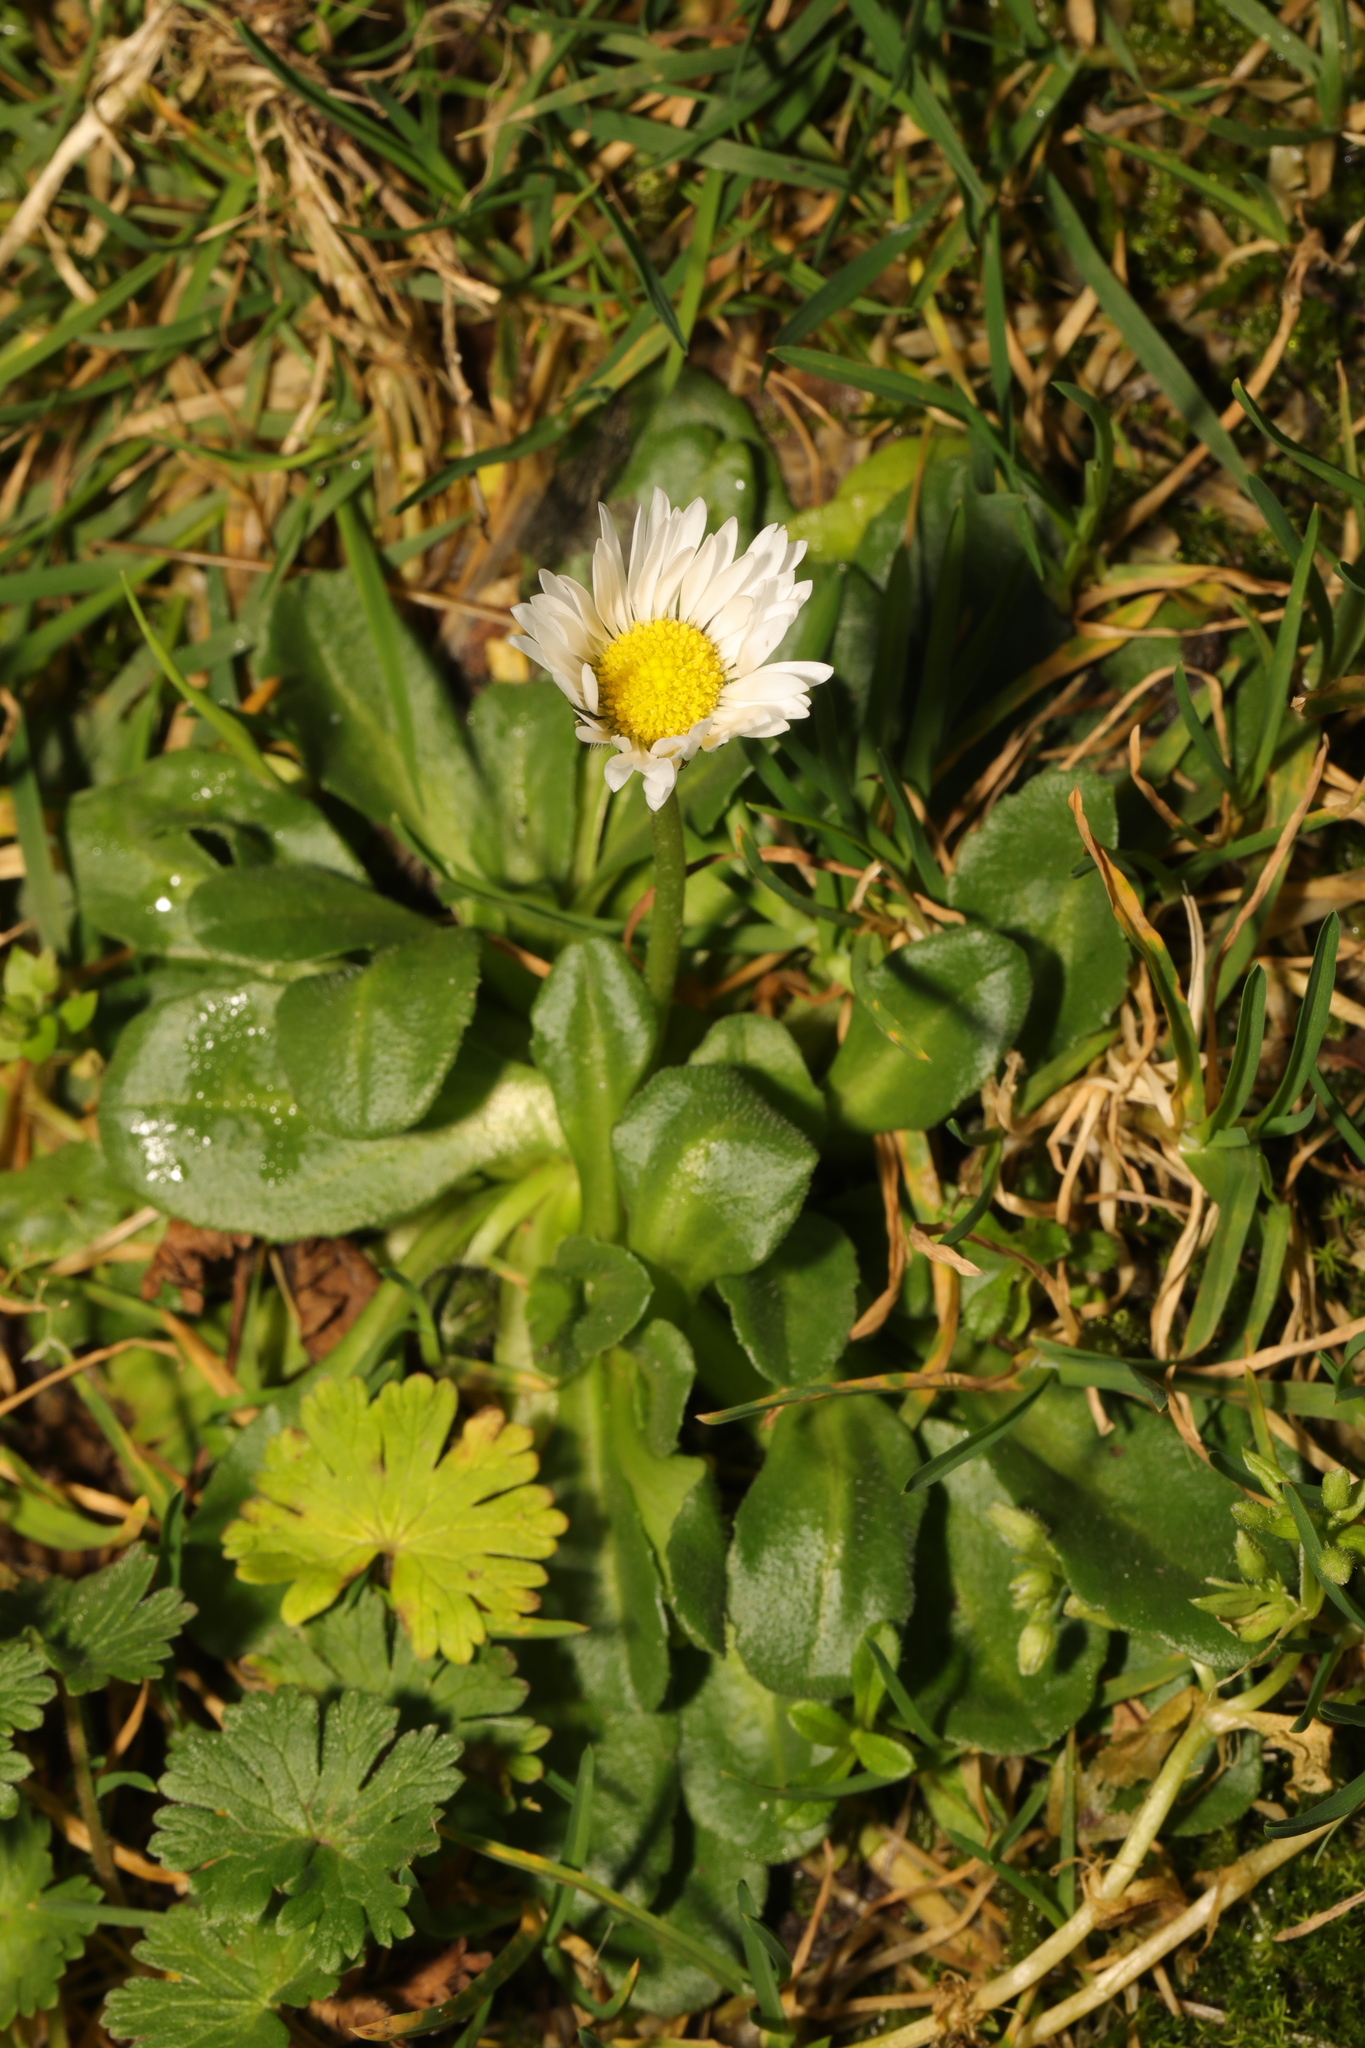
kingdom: Plantae
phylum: Tracheophyta
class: Magnoliopsida
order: Asterales
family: Asteraceae
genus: Bellis
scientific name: Bellis perennis
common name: Lawndaisy
